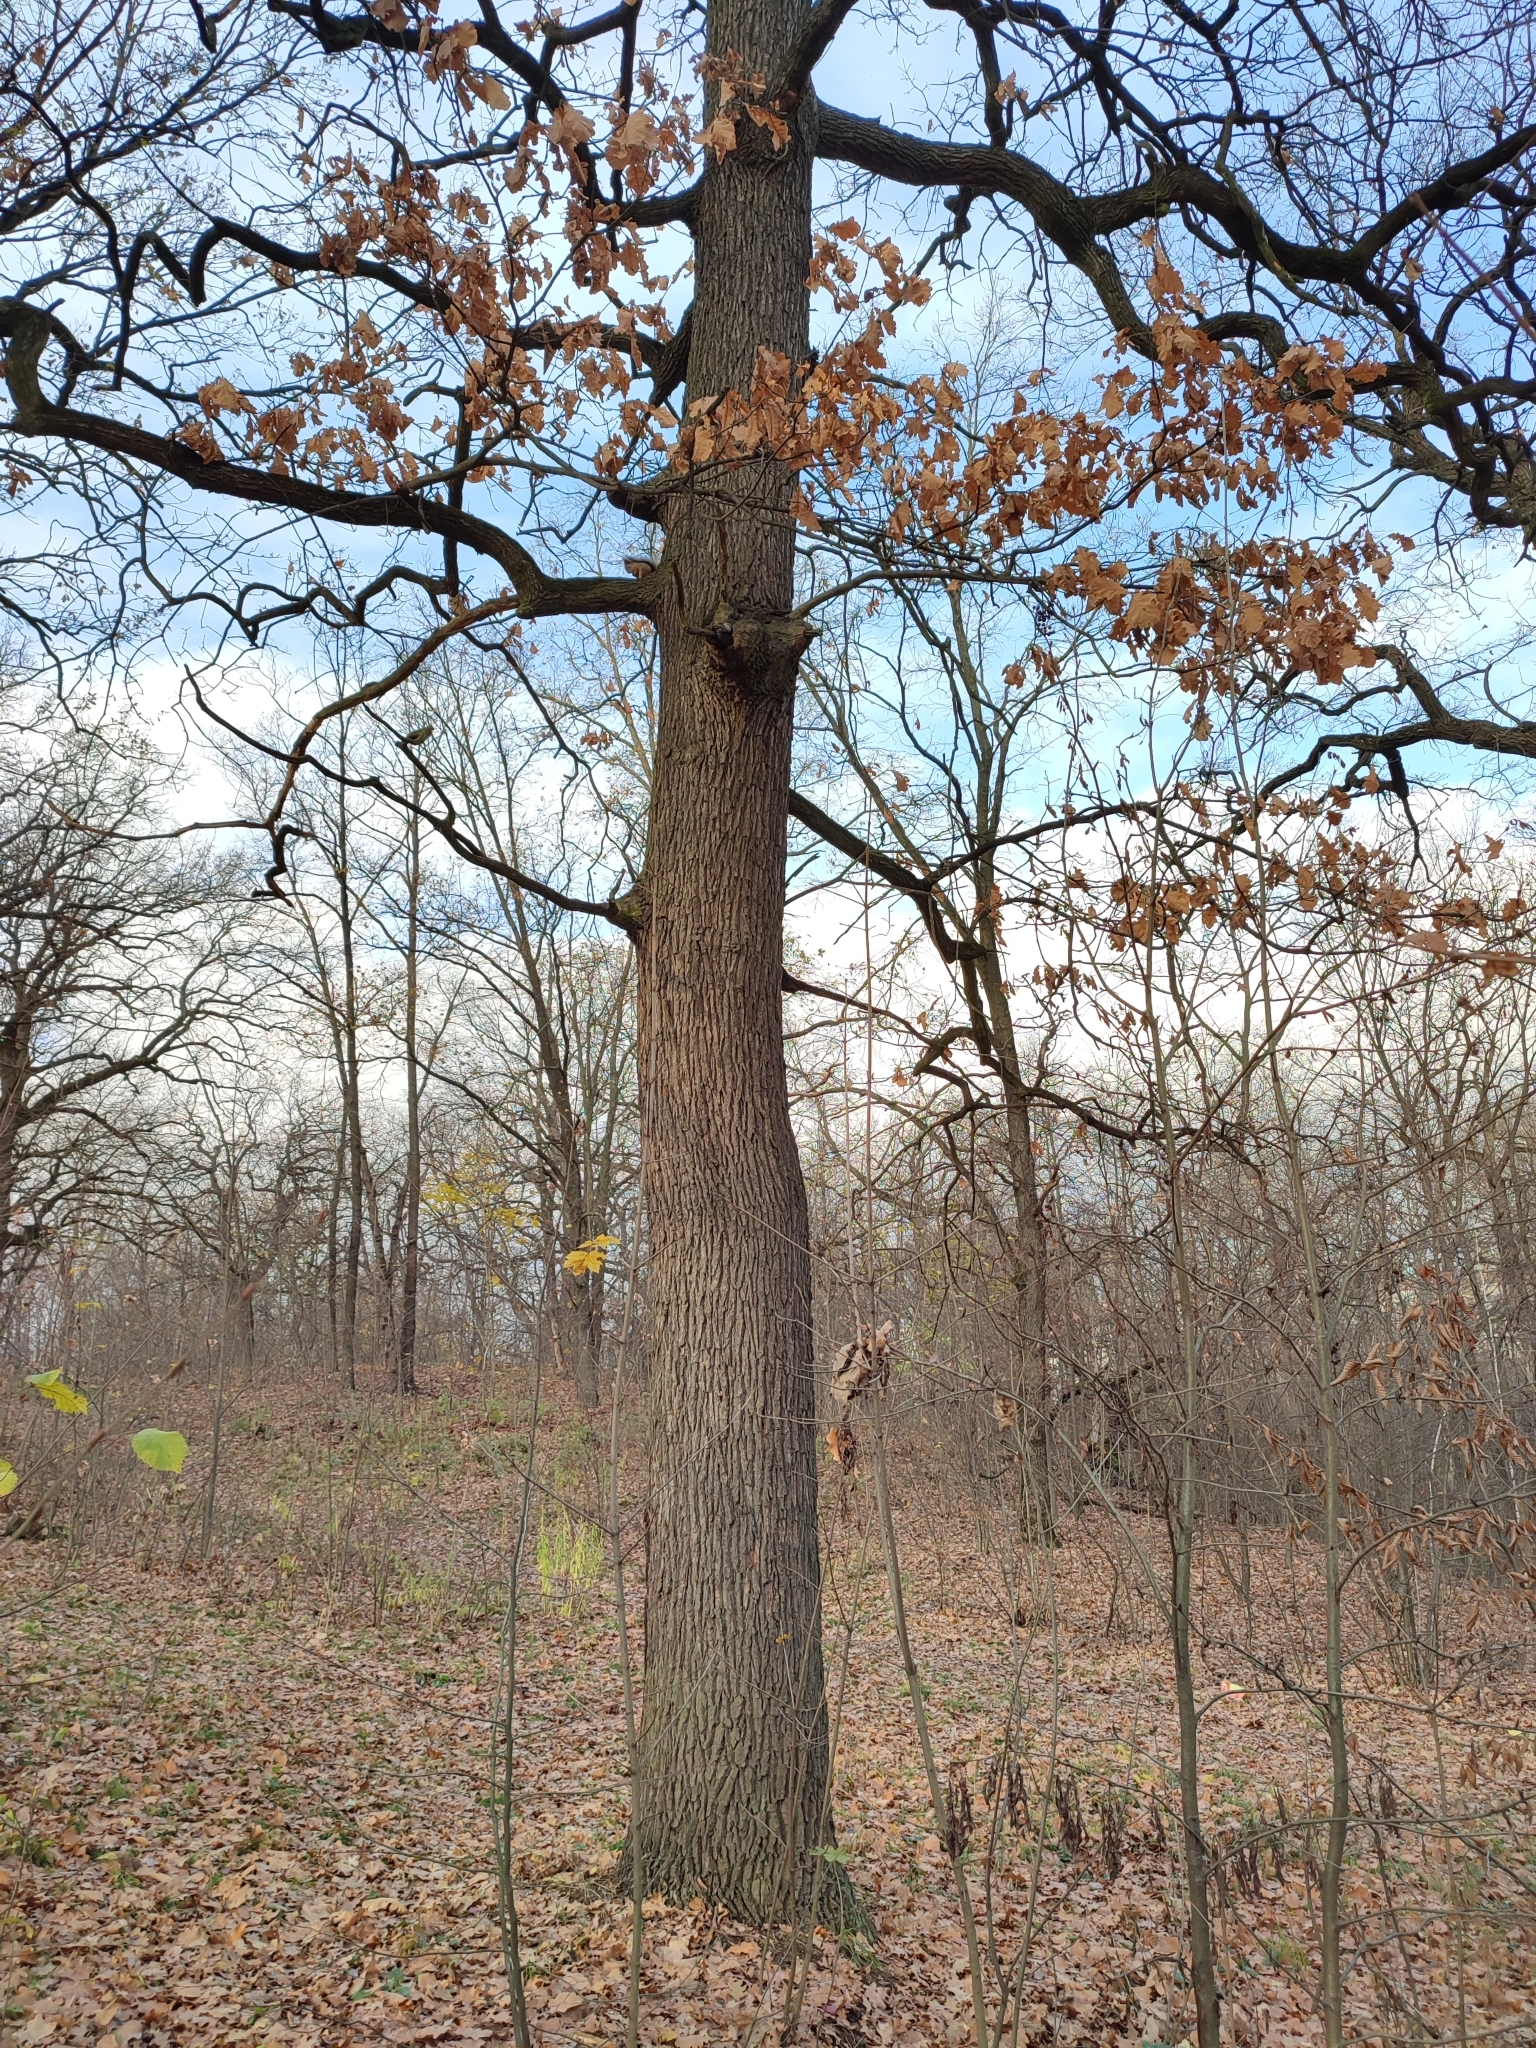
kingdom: Plantae
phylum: Tracheophyta
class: Magnoliopsida
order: Fagales
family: Fagaceae
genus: Quercus
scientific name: Quercus robur
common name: Pedunculate oak
